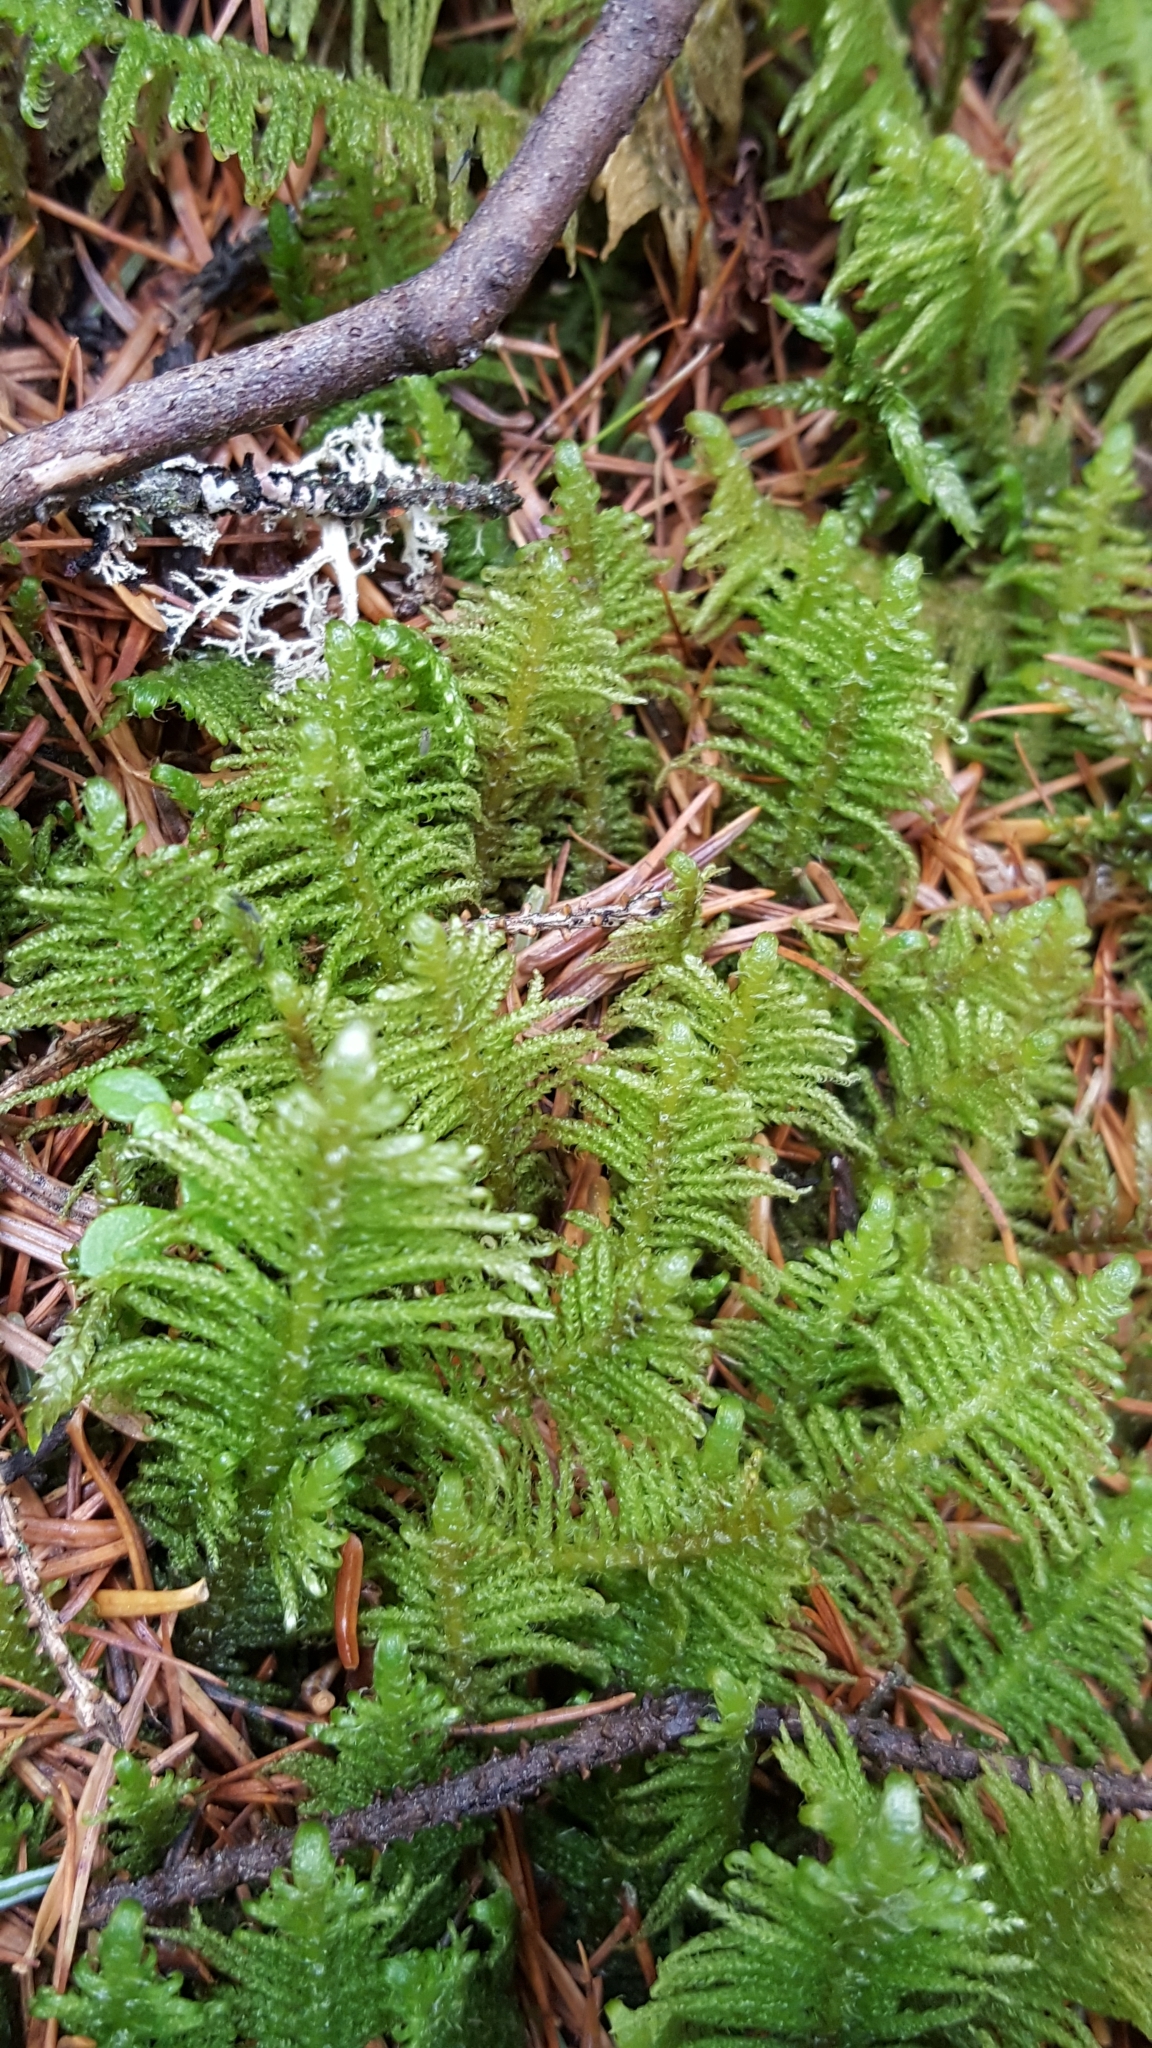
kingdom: Plantae
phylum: Bryophyta
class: Bryopsida
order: Hypnales
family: Pylaisiaceae
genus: Ptilium
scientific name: Ptilium crista-castrensis
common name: Knight's plume moss
